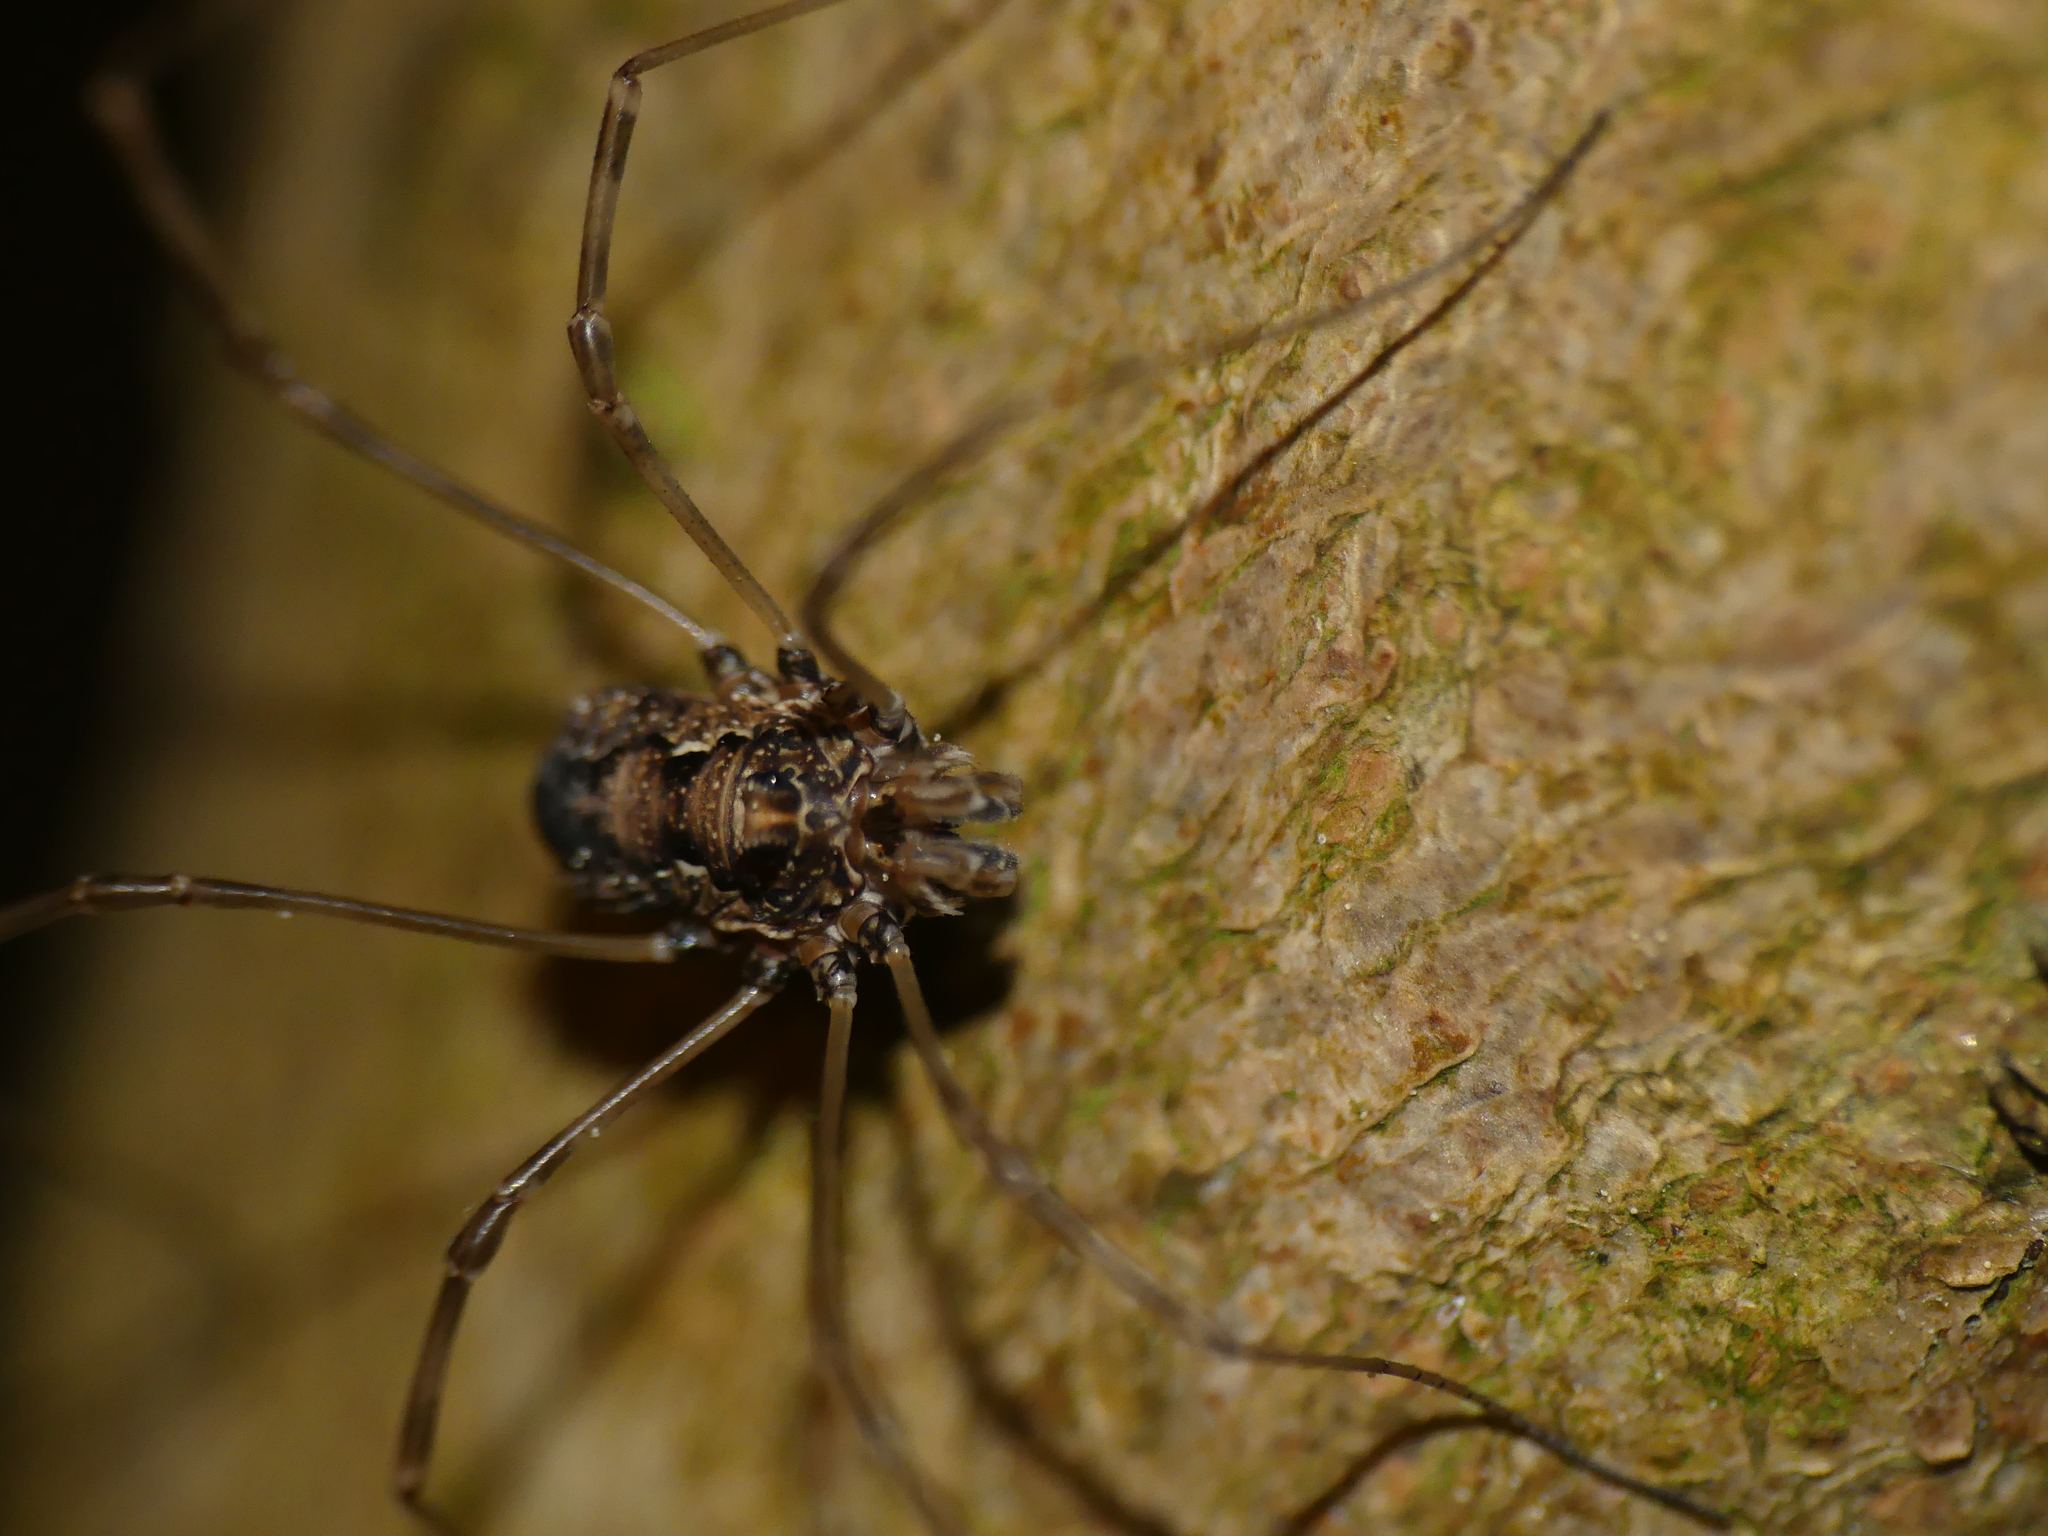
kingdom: Animalia
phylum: Arthropoda
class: Arachnida
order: Opiliones
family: Phalangiidae
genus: Platybunus
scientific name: Platybunus pinetorum
